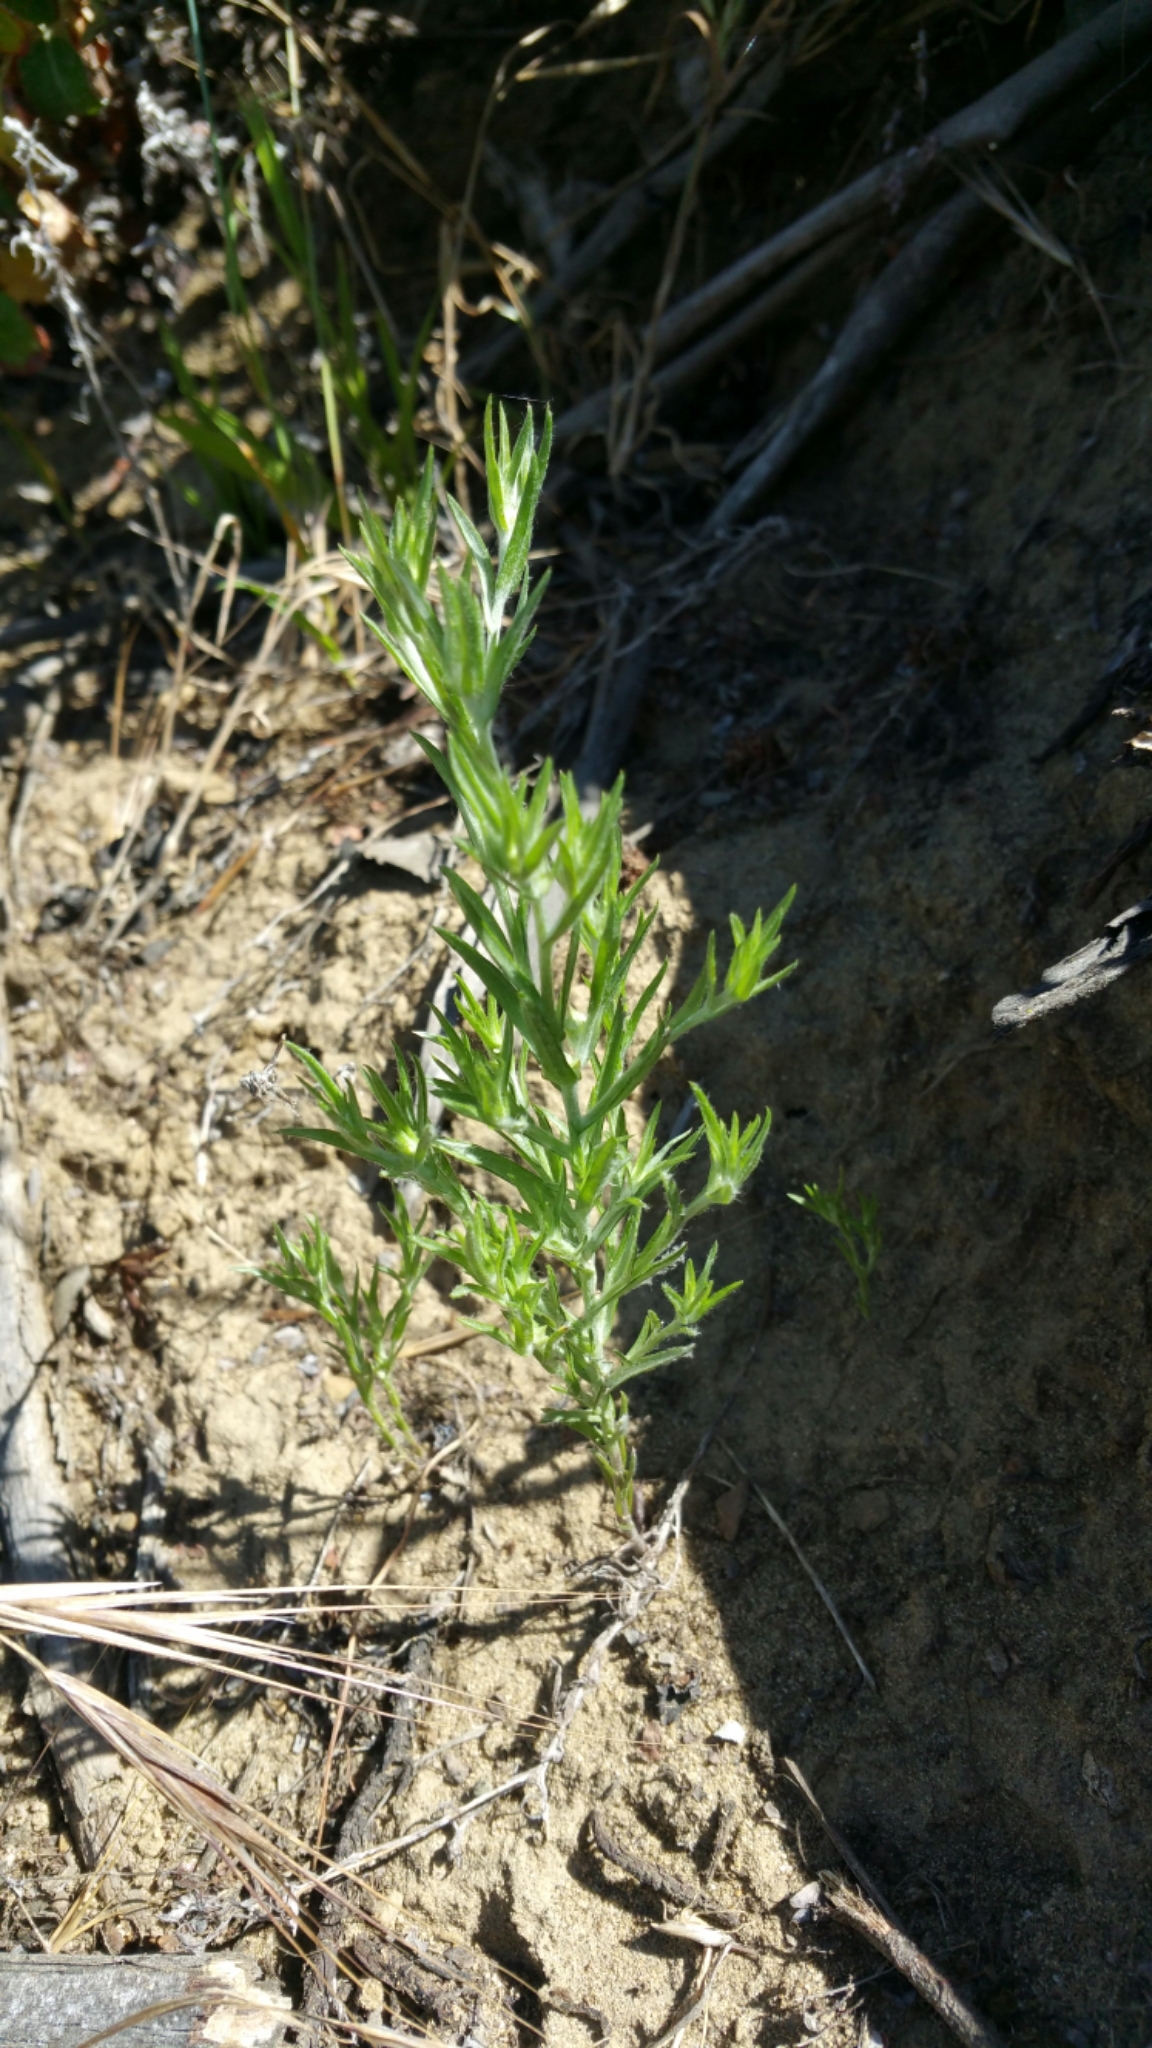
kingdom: Plantae
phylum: Tracheophyta
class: Magnoliopsida
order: Asterales
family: Asteraceae
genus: Logfia
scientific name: Logfia gallica
